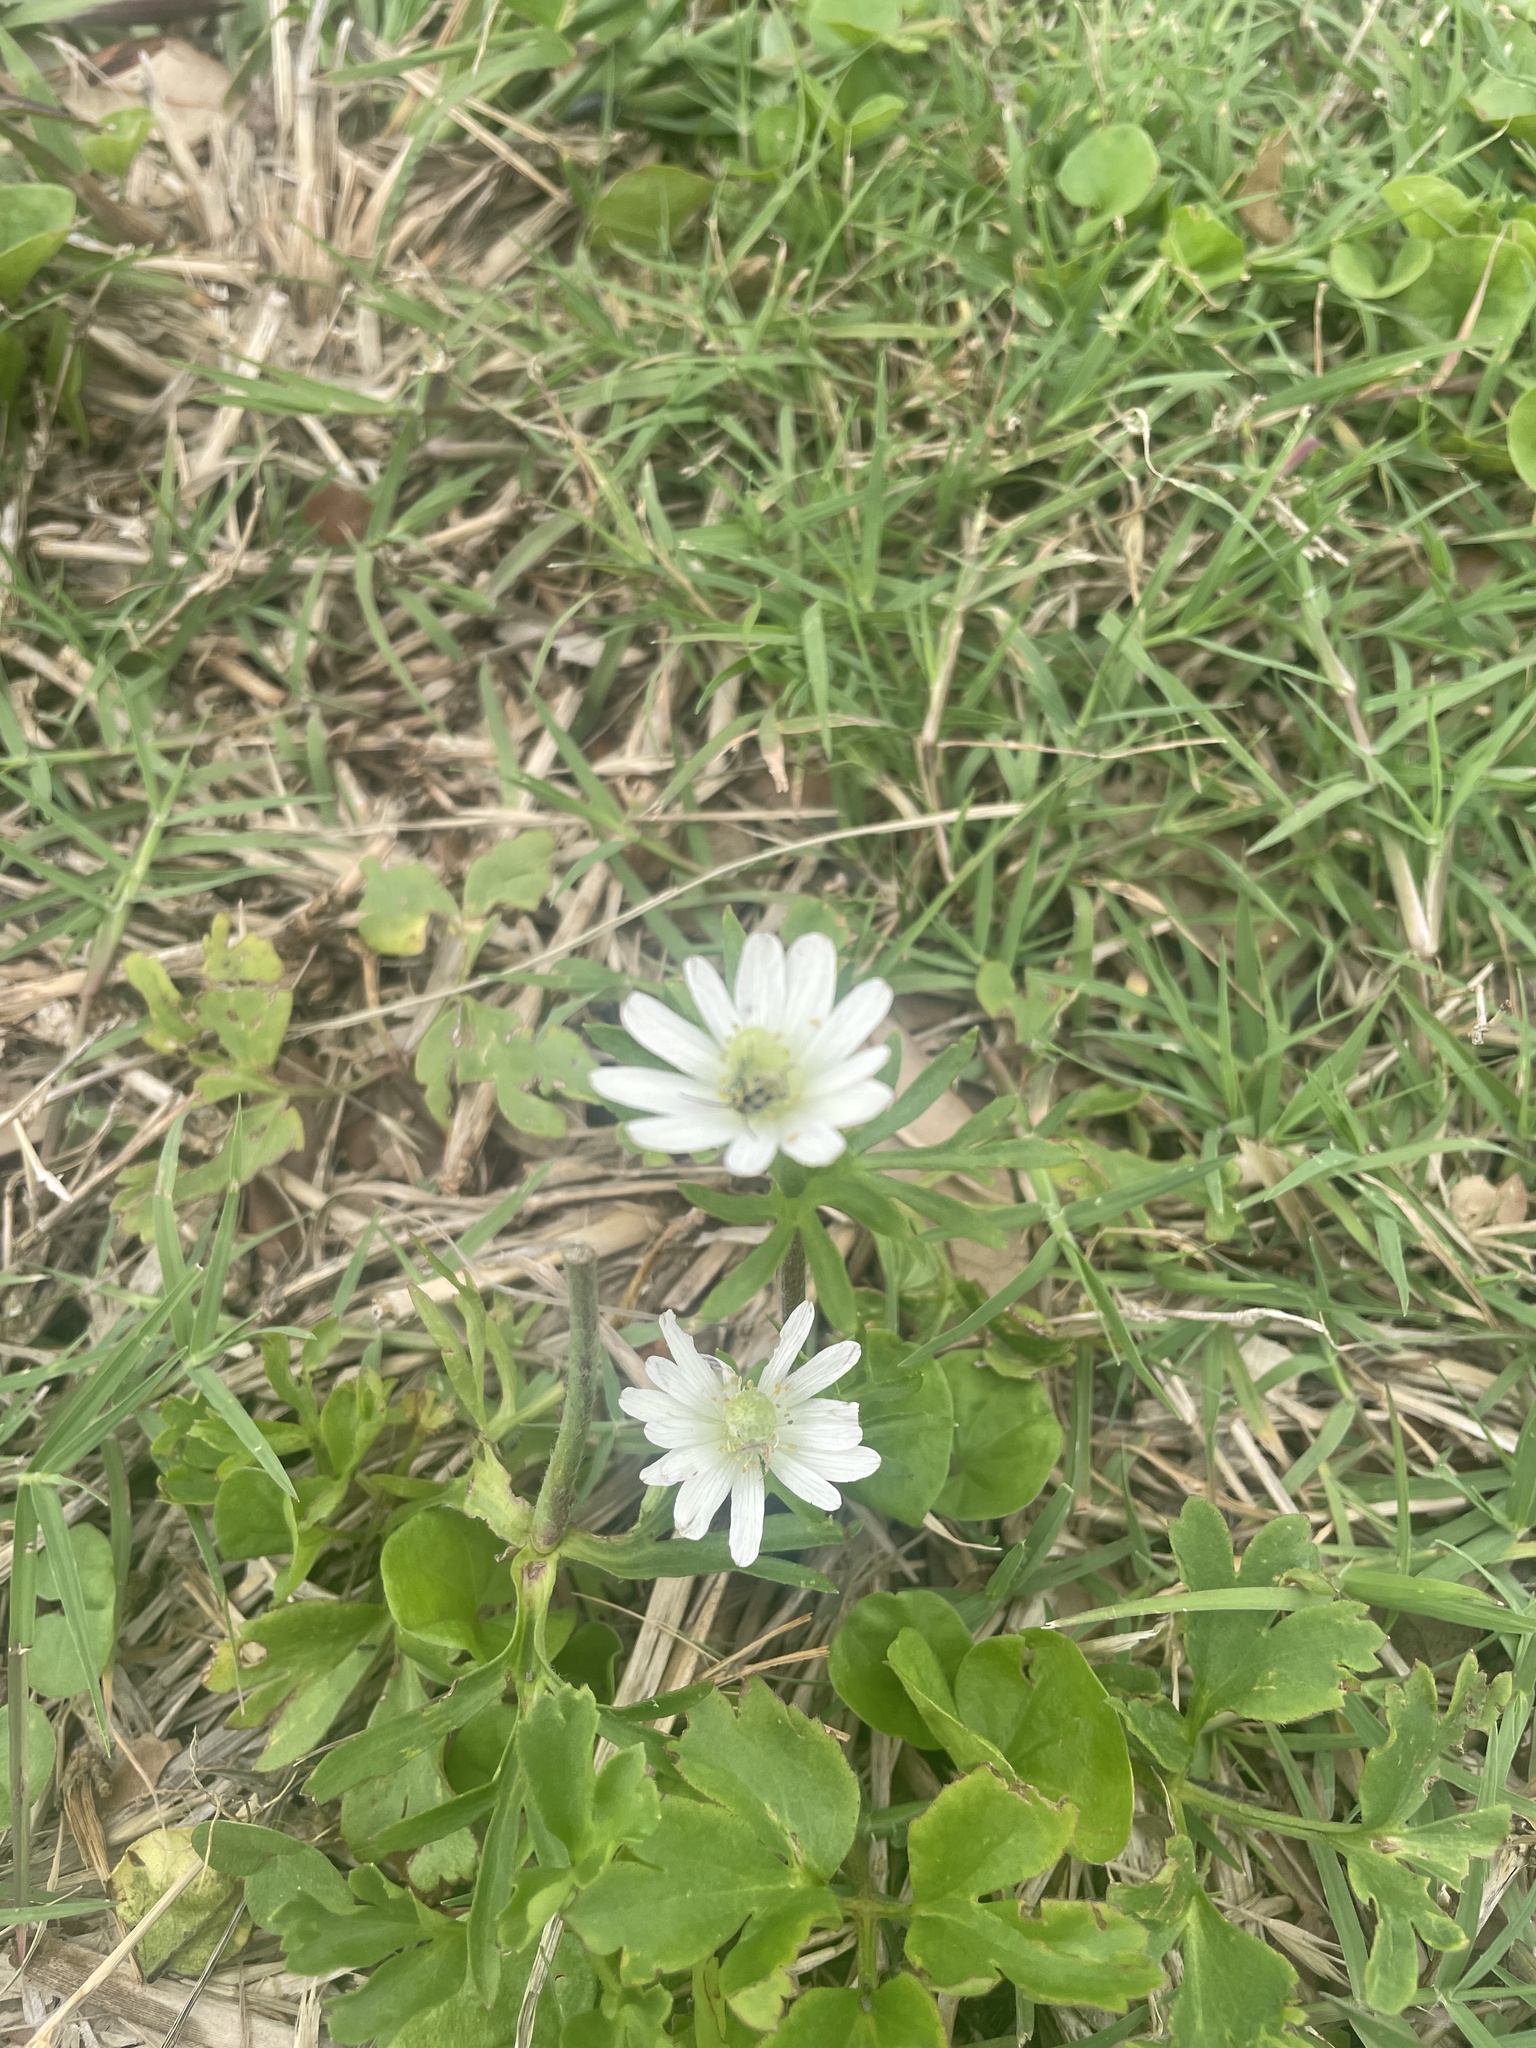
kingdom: Plantae
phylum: Tracheophyta
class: Magnoliopsida
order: Ranunculales
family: Ranunculaceae
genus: Anemone
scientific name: Anemone berlandieri
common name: Ten-petal anemone
